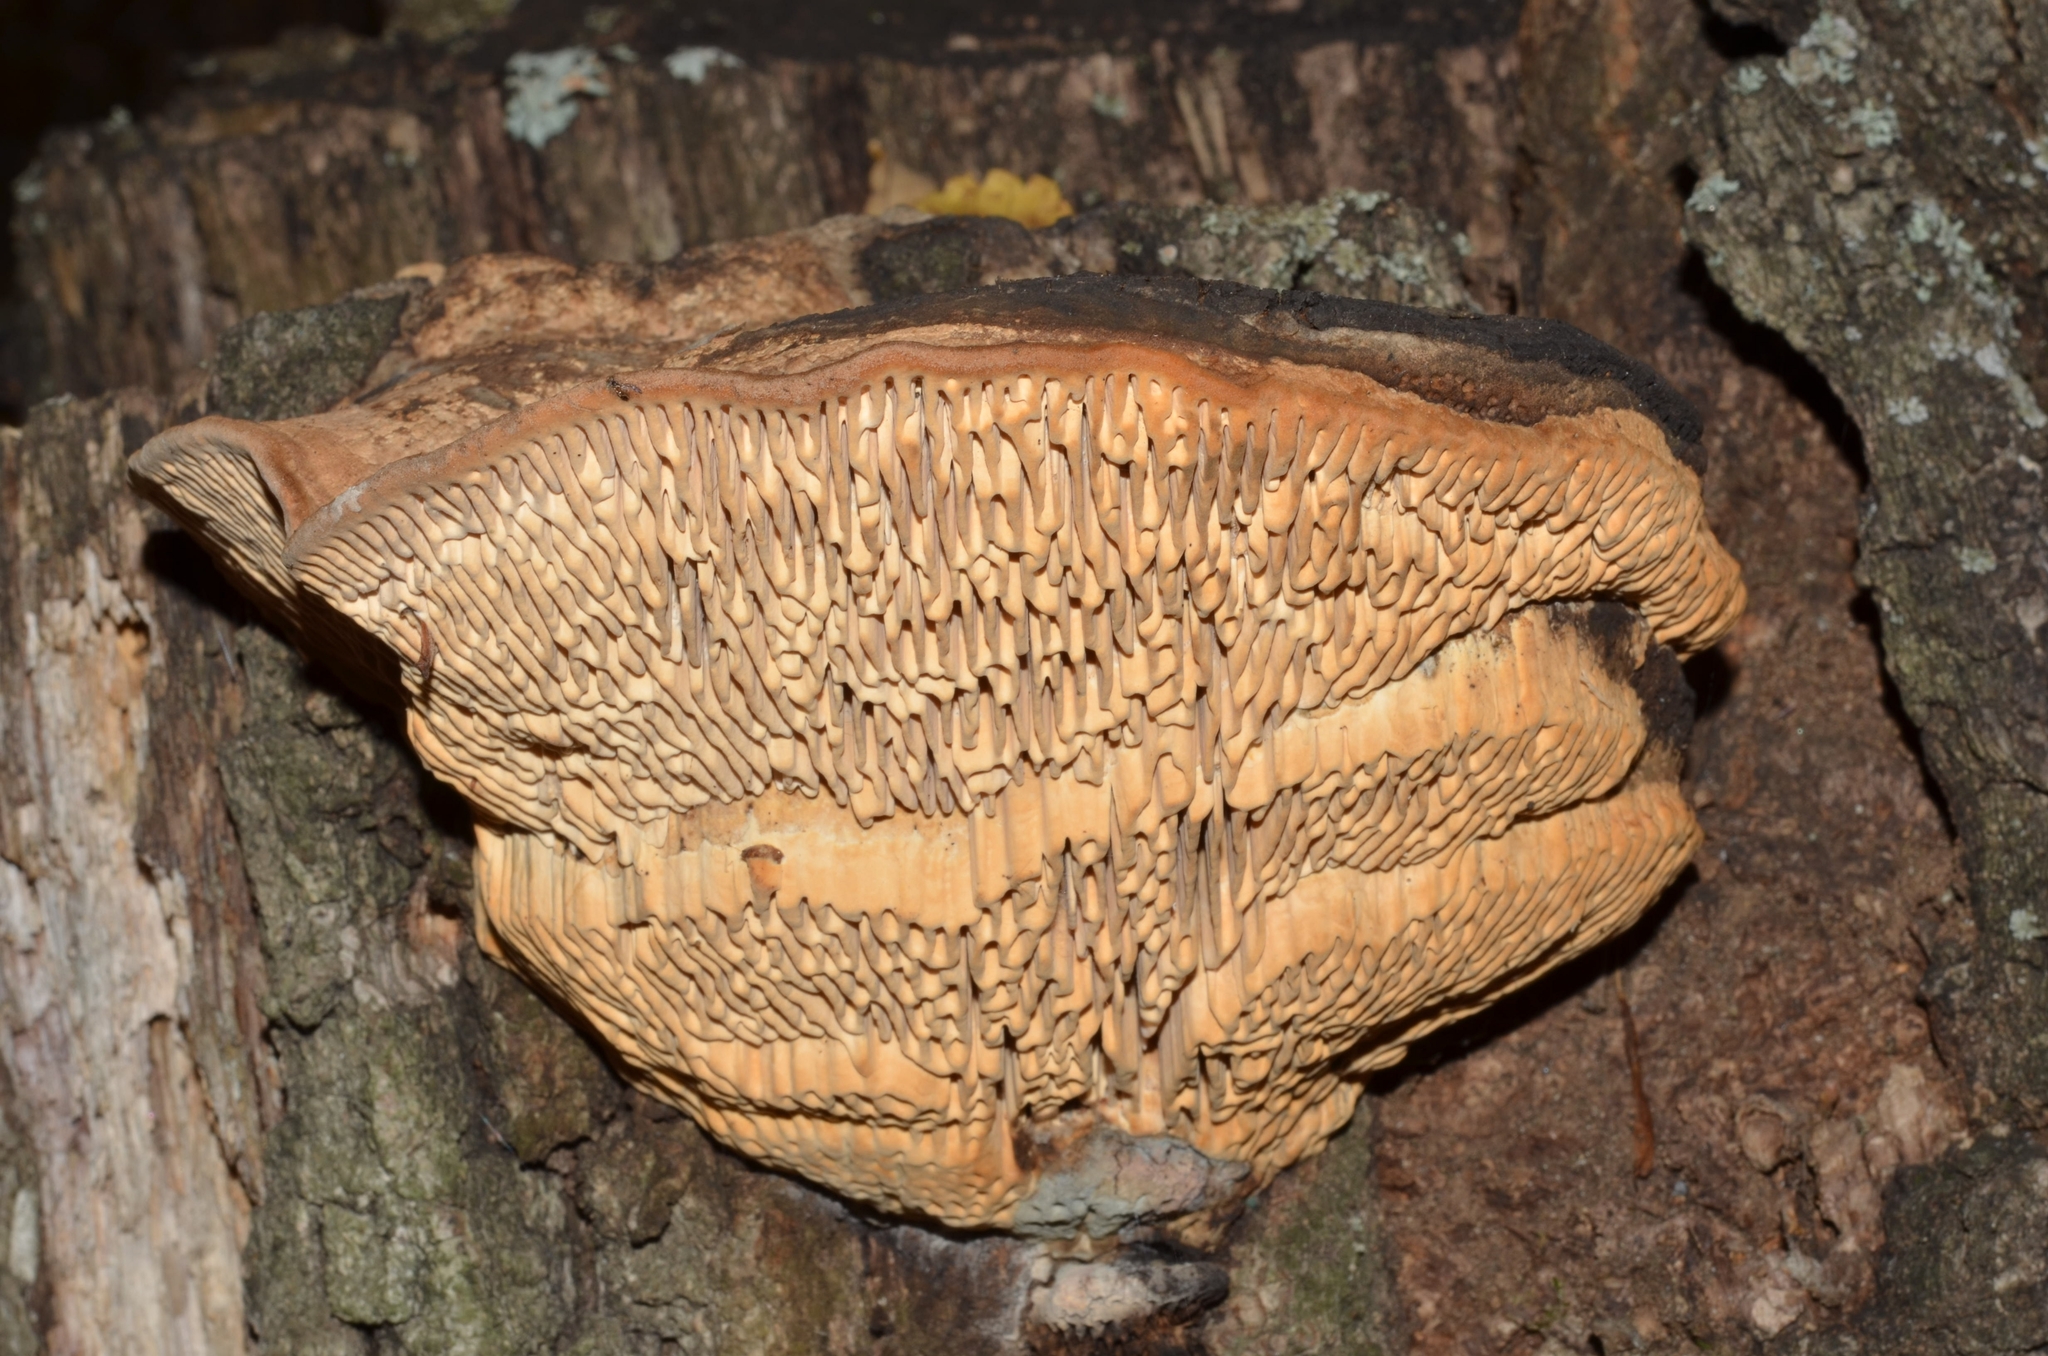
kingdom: Fungi
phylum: Basidiomycota
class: Agaricomycetes
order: Polyporales
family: Fomitopsidaceae
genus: Fomitopsis
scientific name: Fomitopsis
